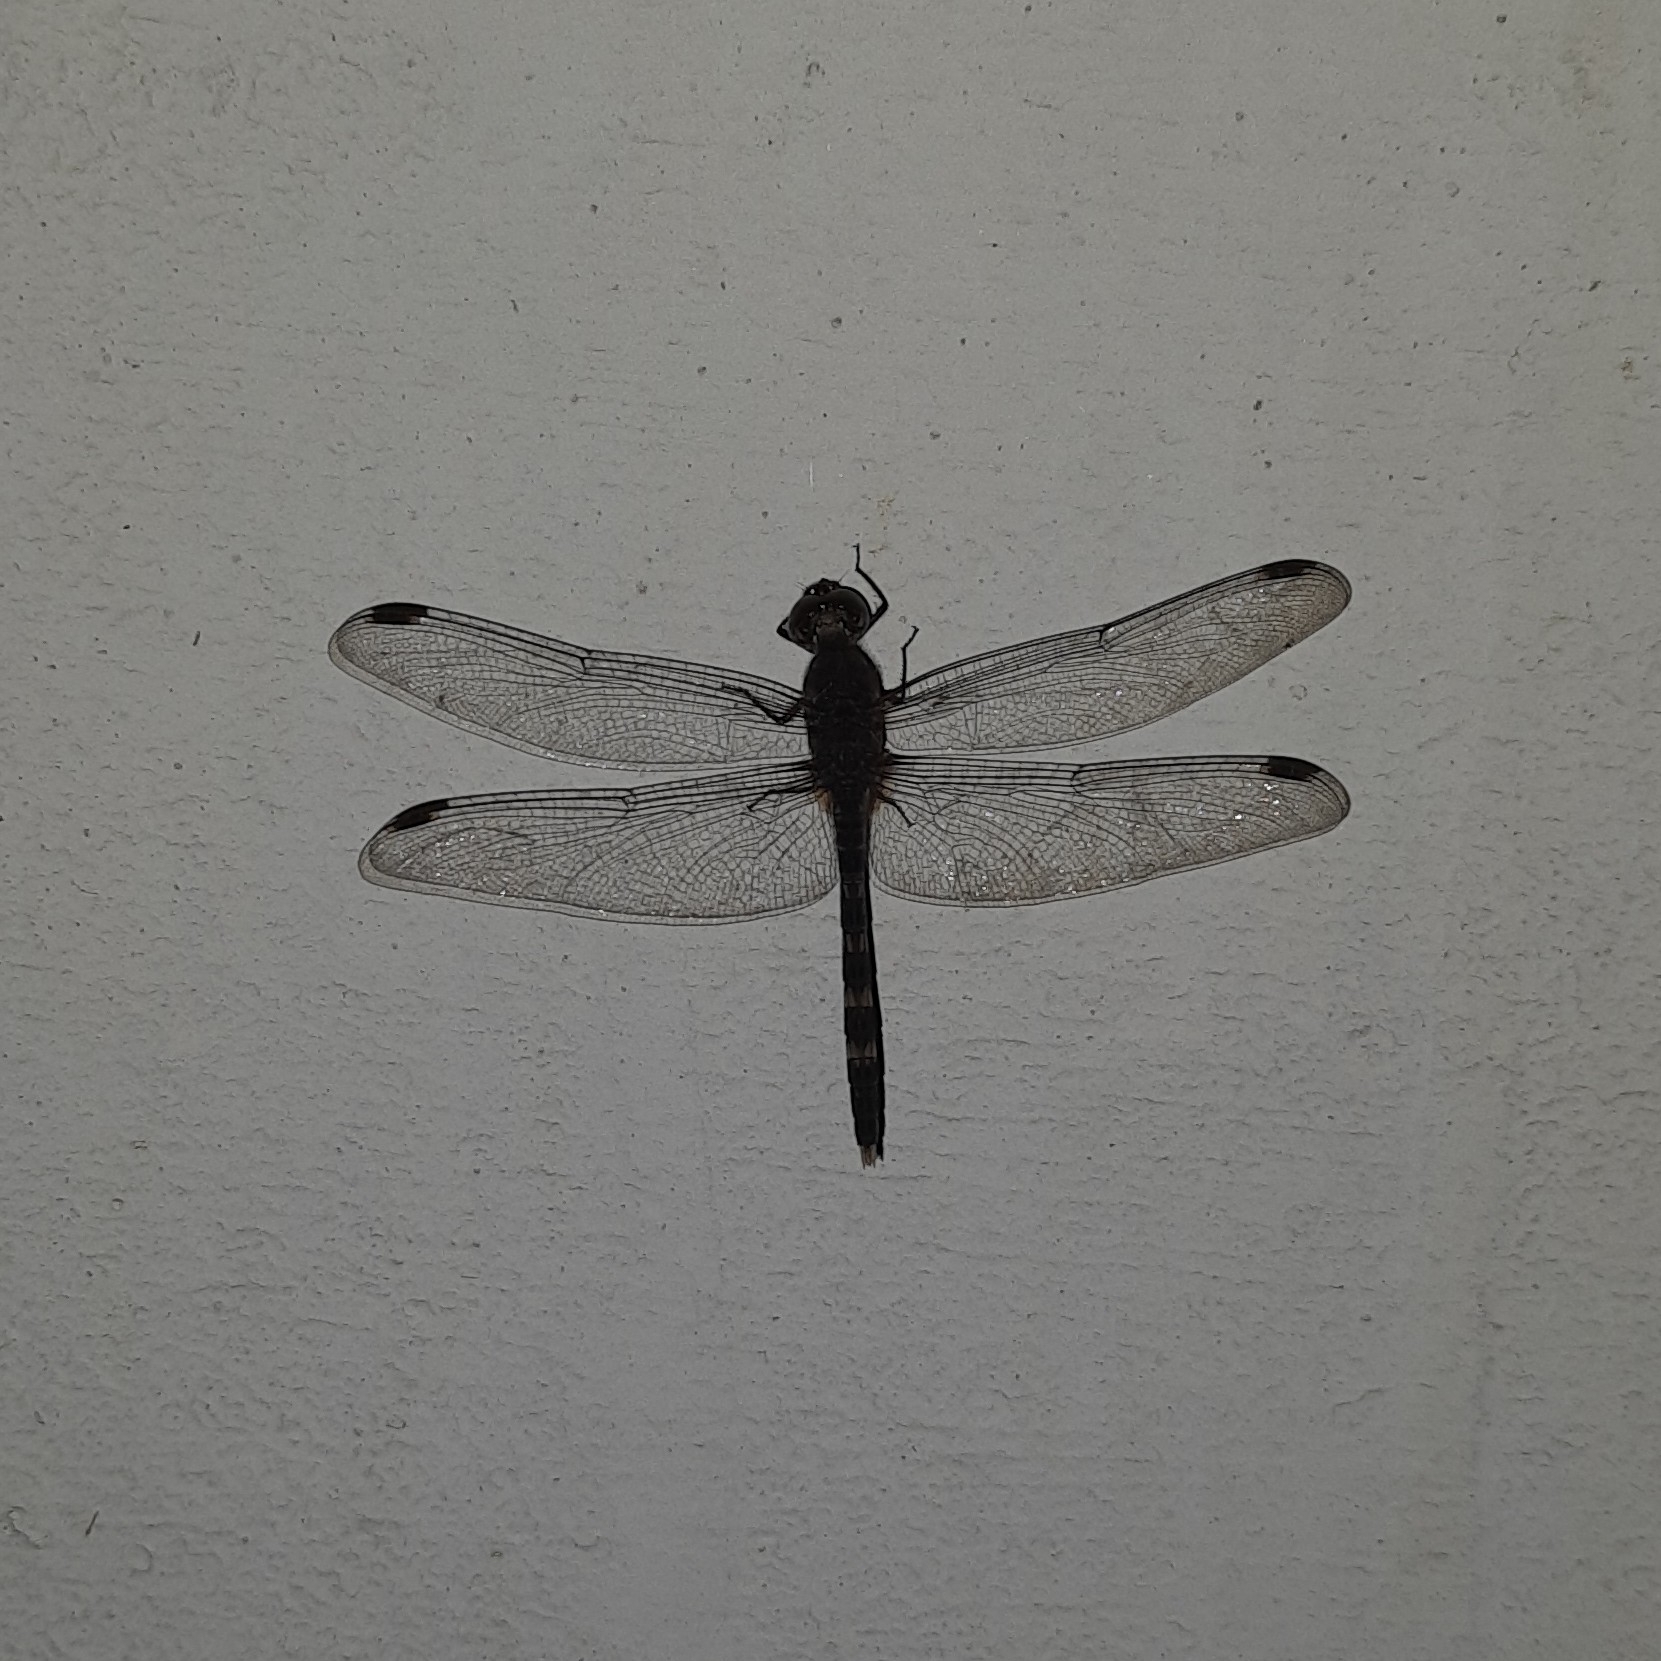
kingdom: Animalia
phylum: Arthropoda
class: Insecta
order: Odonata
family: Libellulidae
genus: Bradinopyga
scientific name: Bradinopyga geminata
